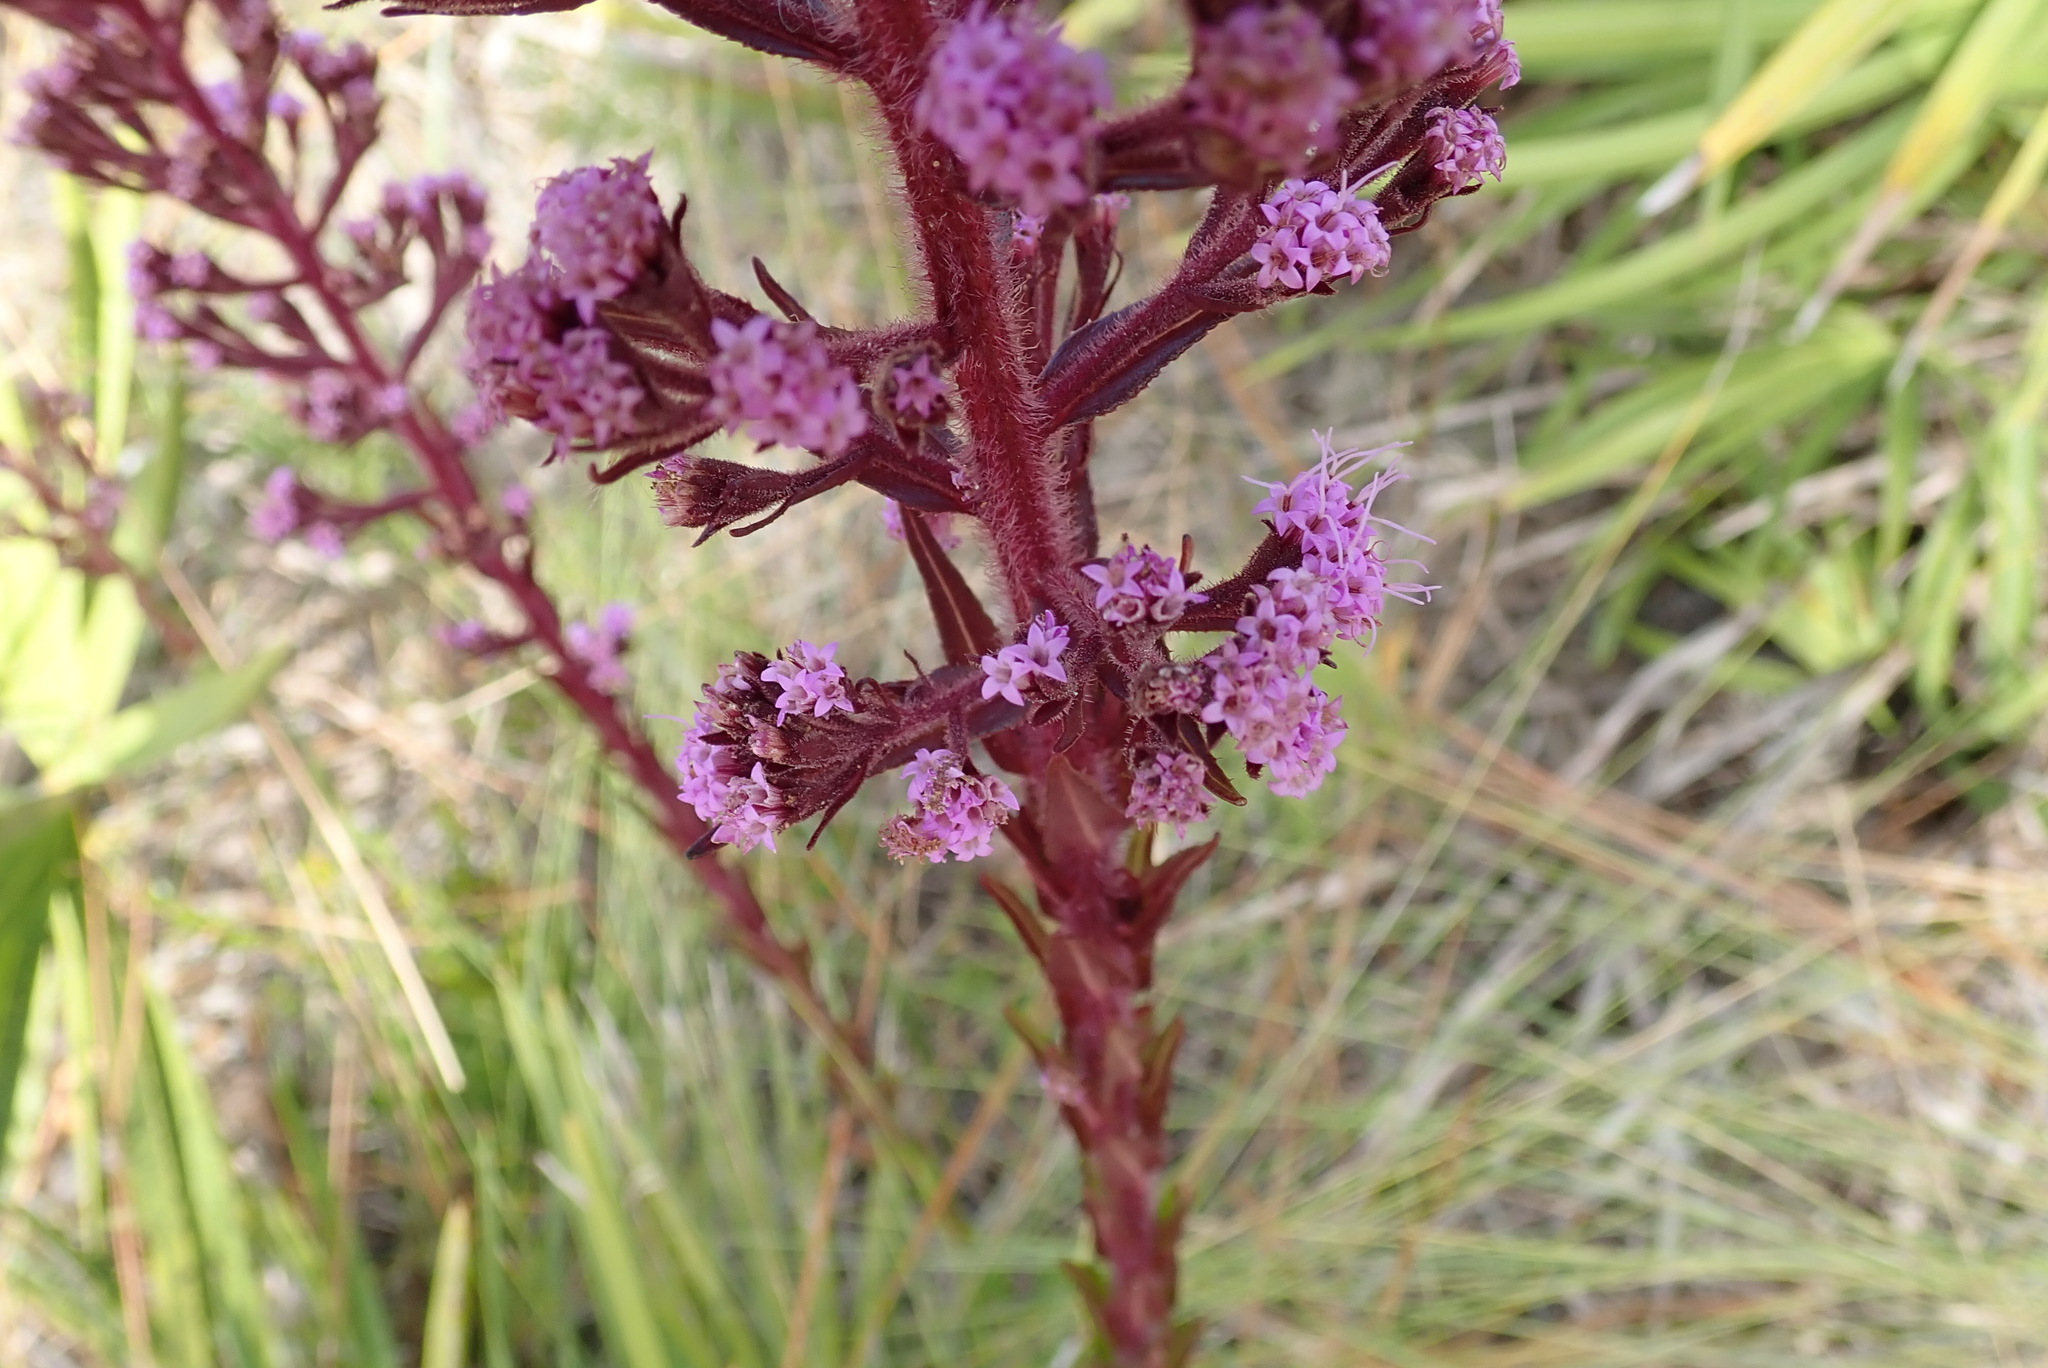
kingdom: Plantae
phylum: Tracheophyta
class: Magnoliopsida
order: Asterales
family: Asteraceae
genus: Carphephorus
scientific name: Carphephorus paniculatus
